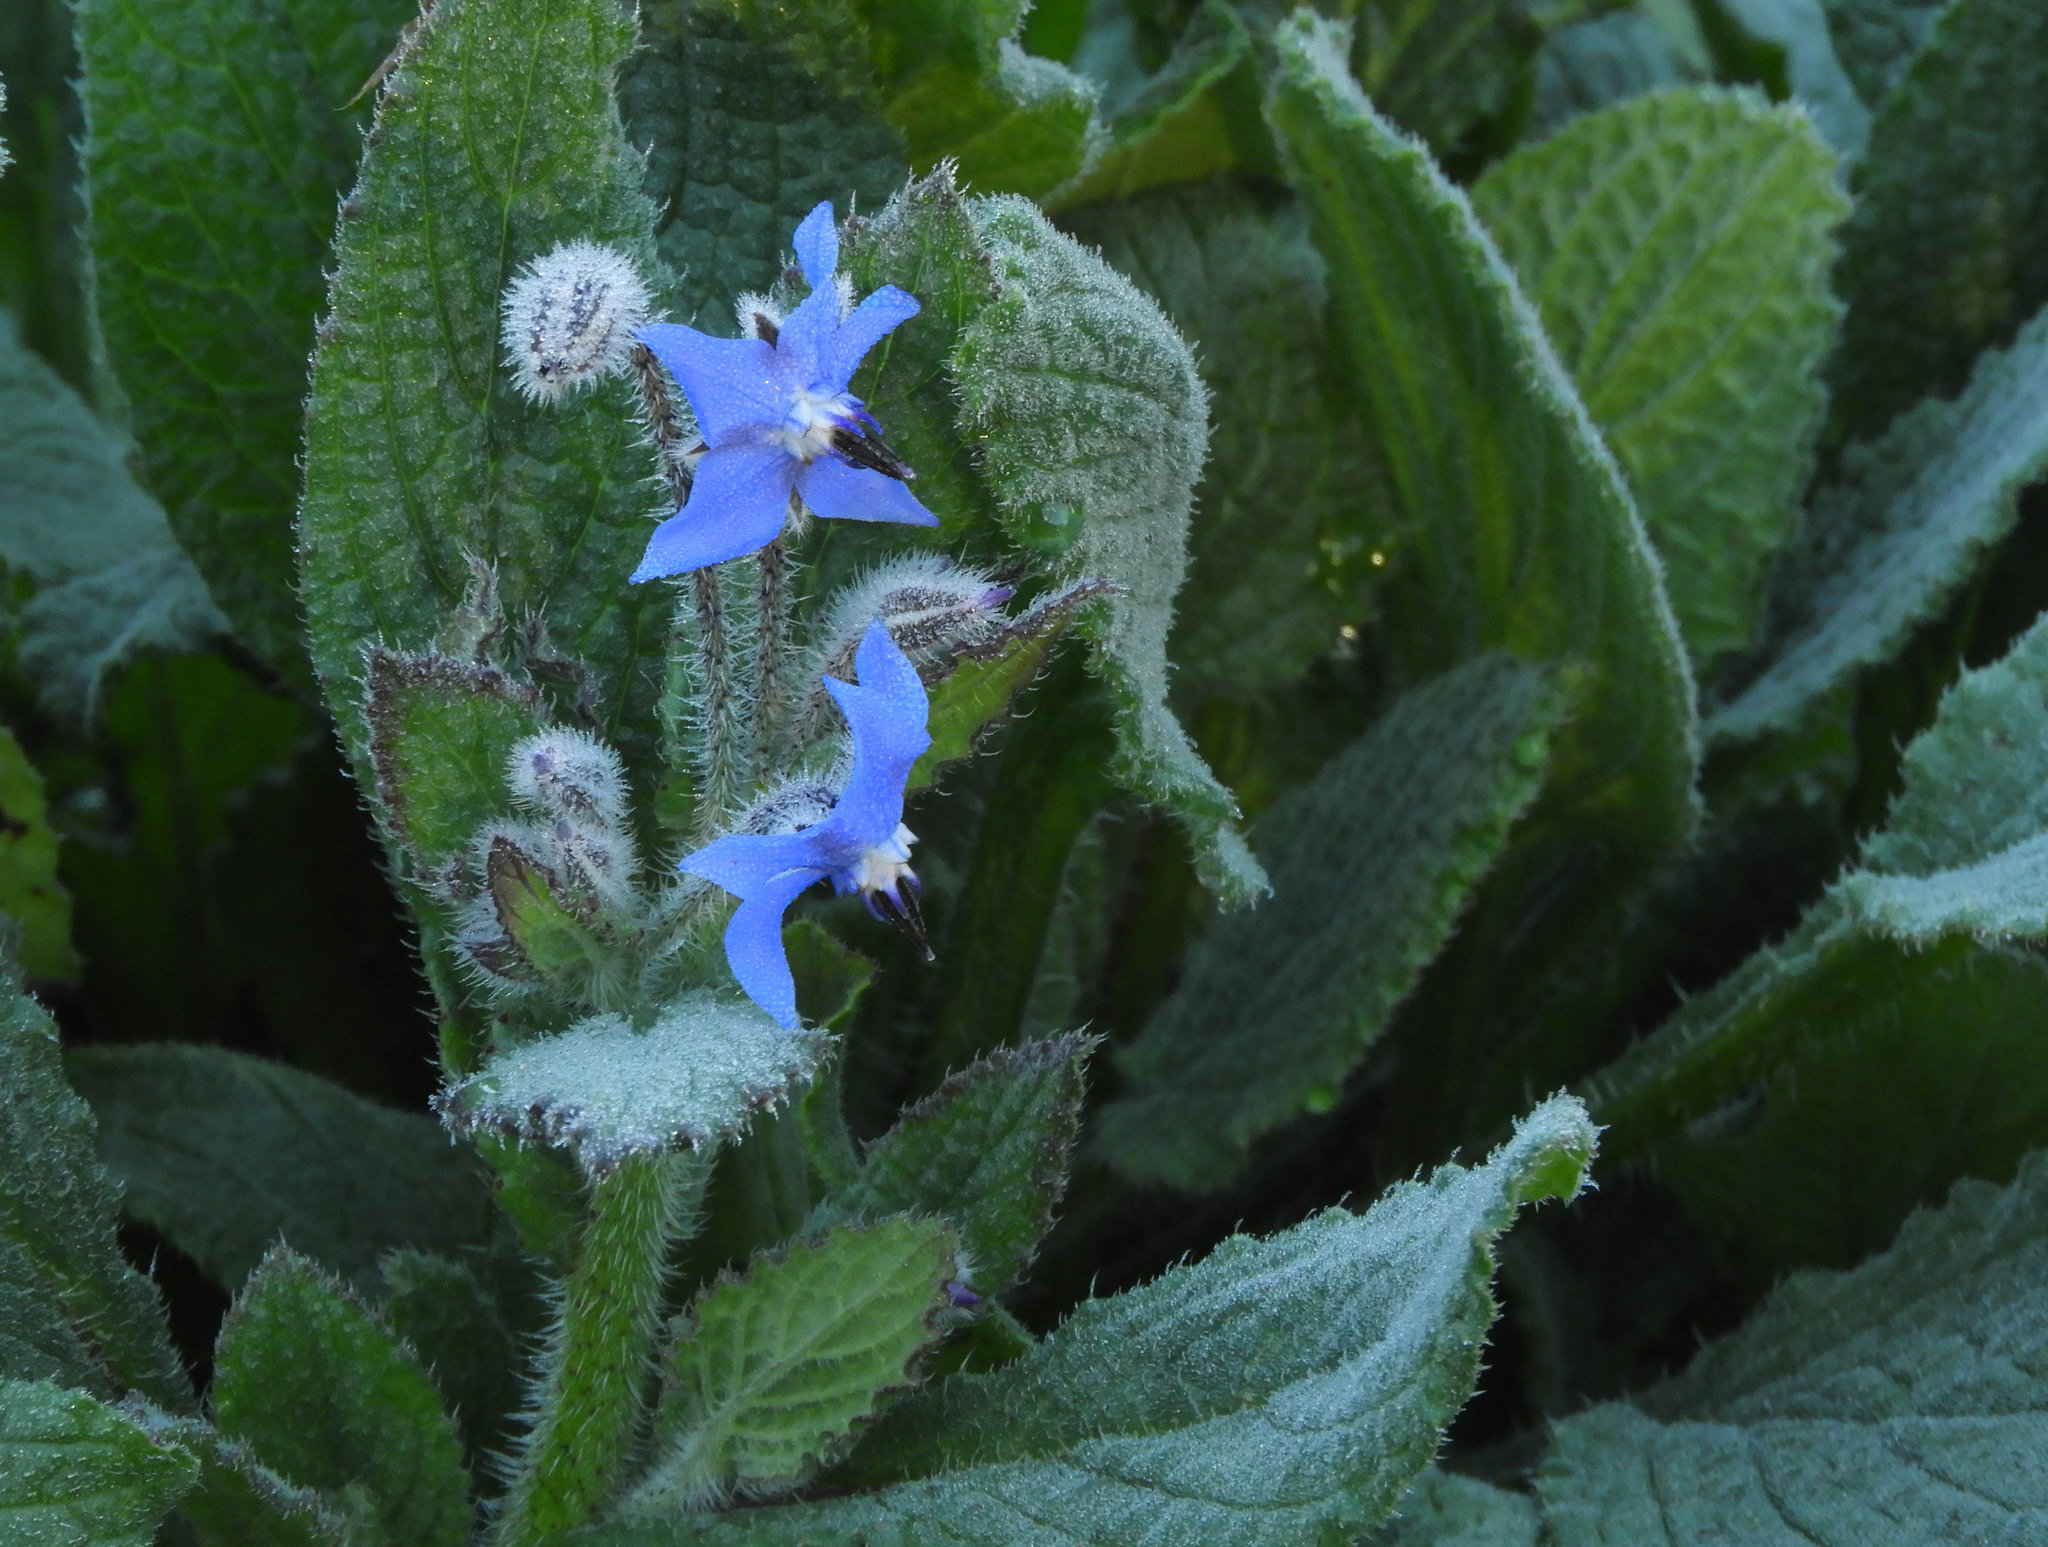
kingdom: Plantae
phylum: Tracheophyta
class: Magnoliopsida
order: Boraginales
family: Boraginaceae
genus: Borago
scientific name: Borago officinalis
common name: Borage
